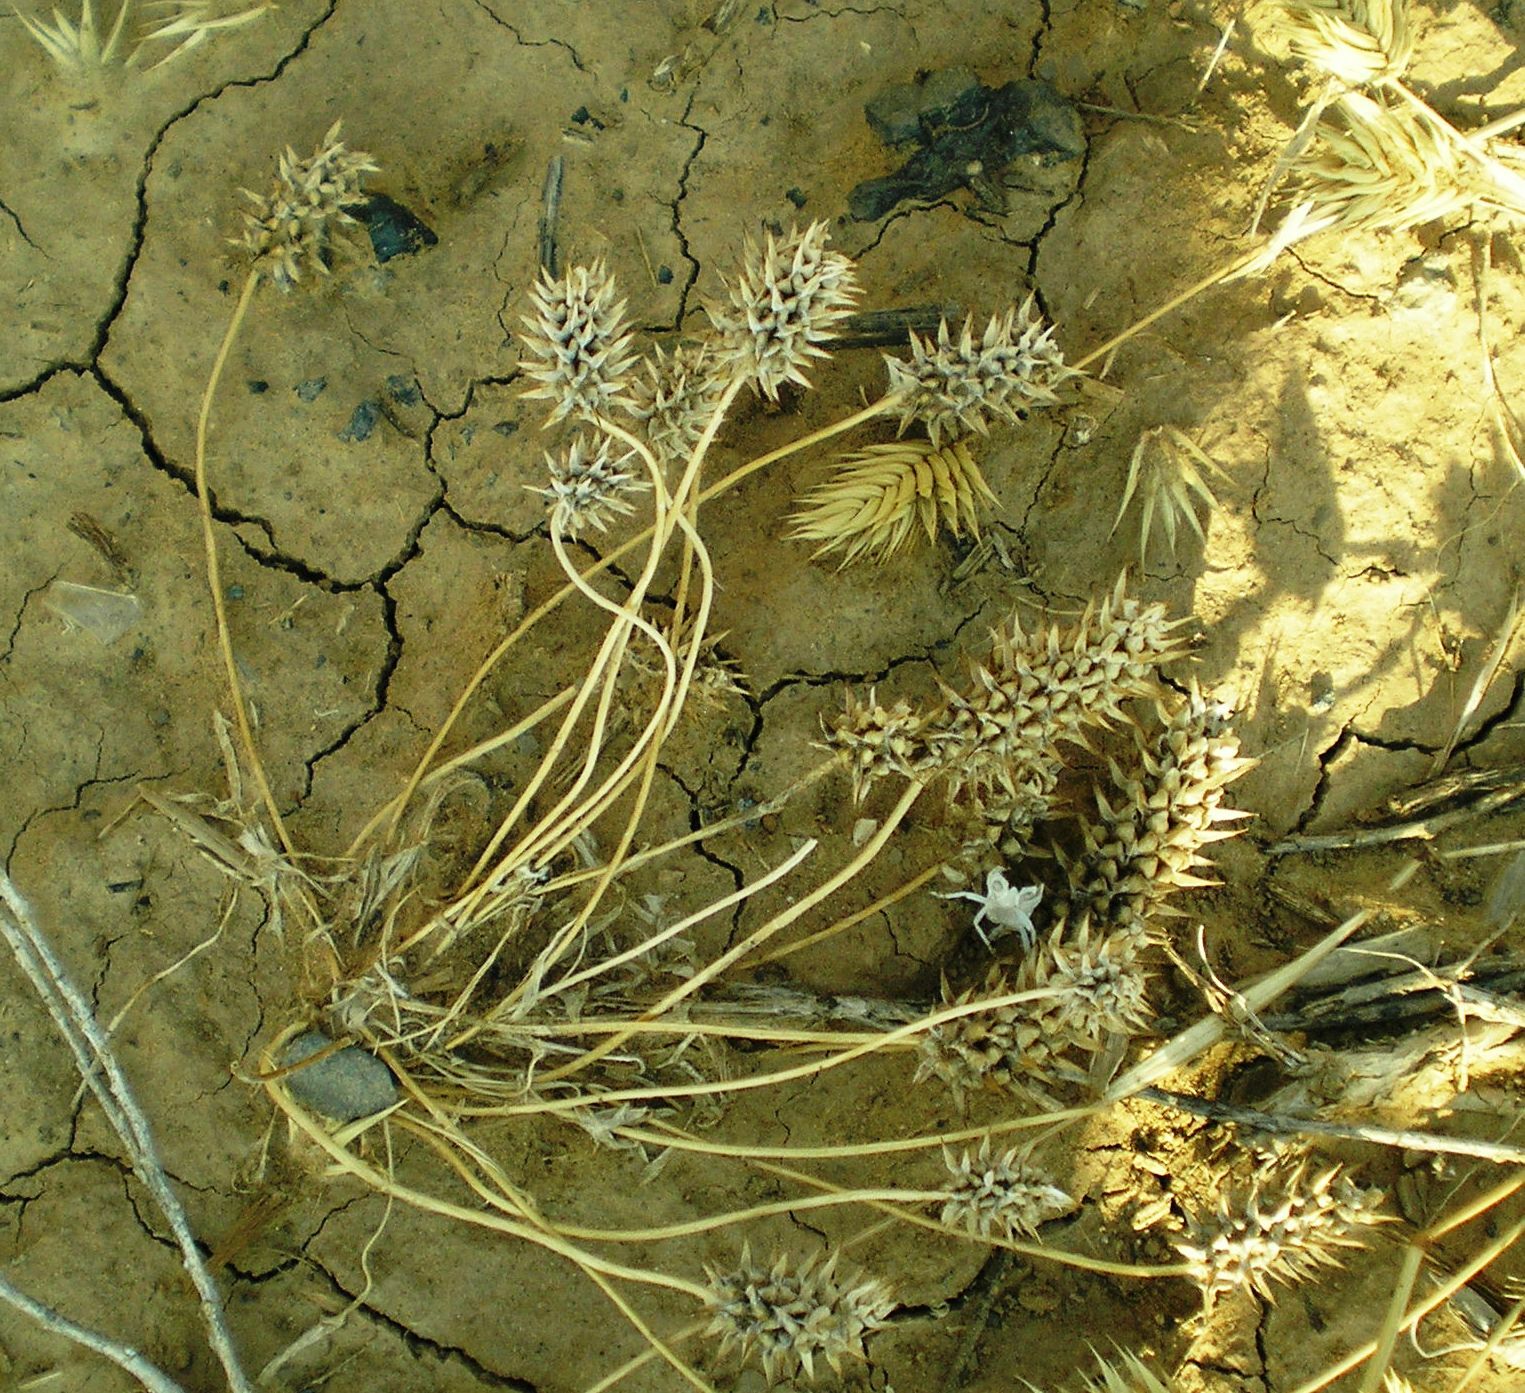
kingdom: Plantae
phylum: Tracheophyta
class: Magnoliopsida
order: Ranunculales
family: Ranunculaceae
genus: Ceratocephala
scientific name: Ceratocephala orthoceras
